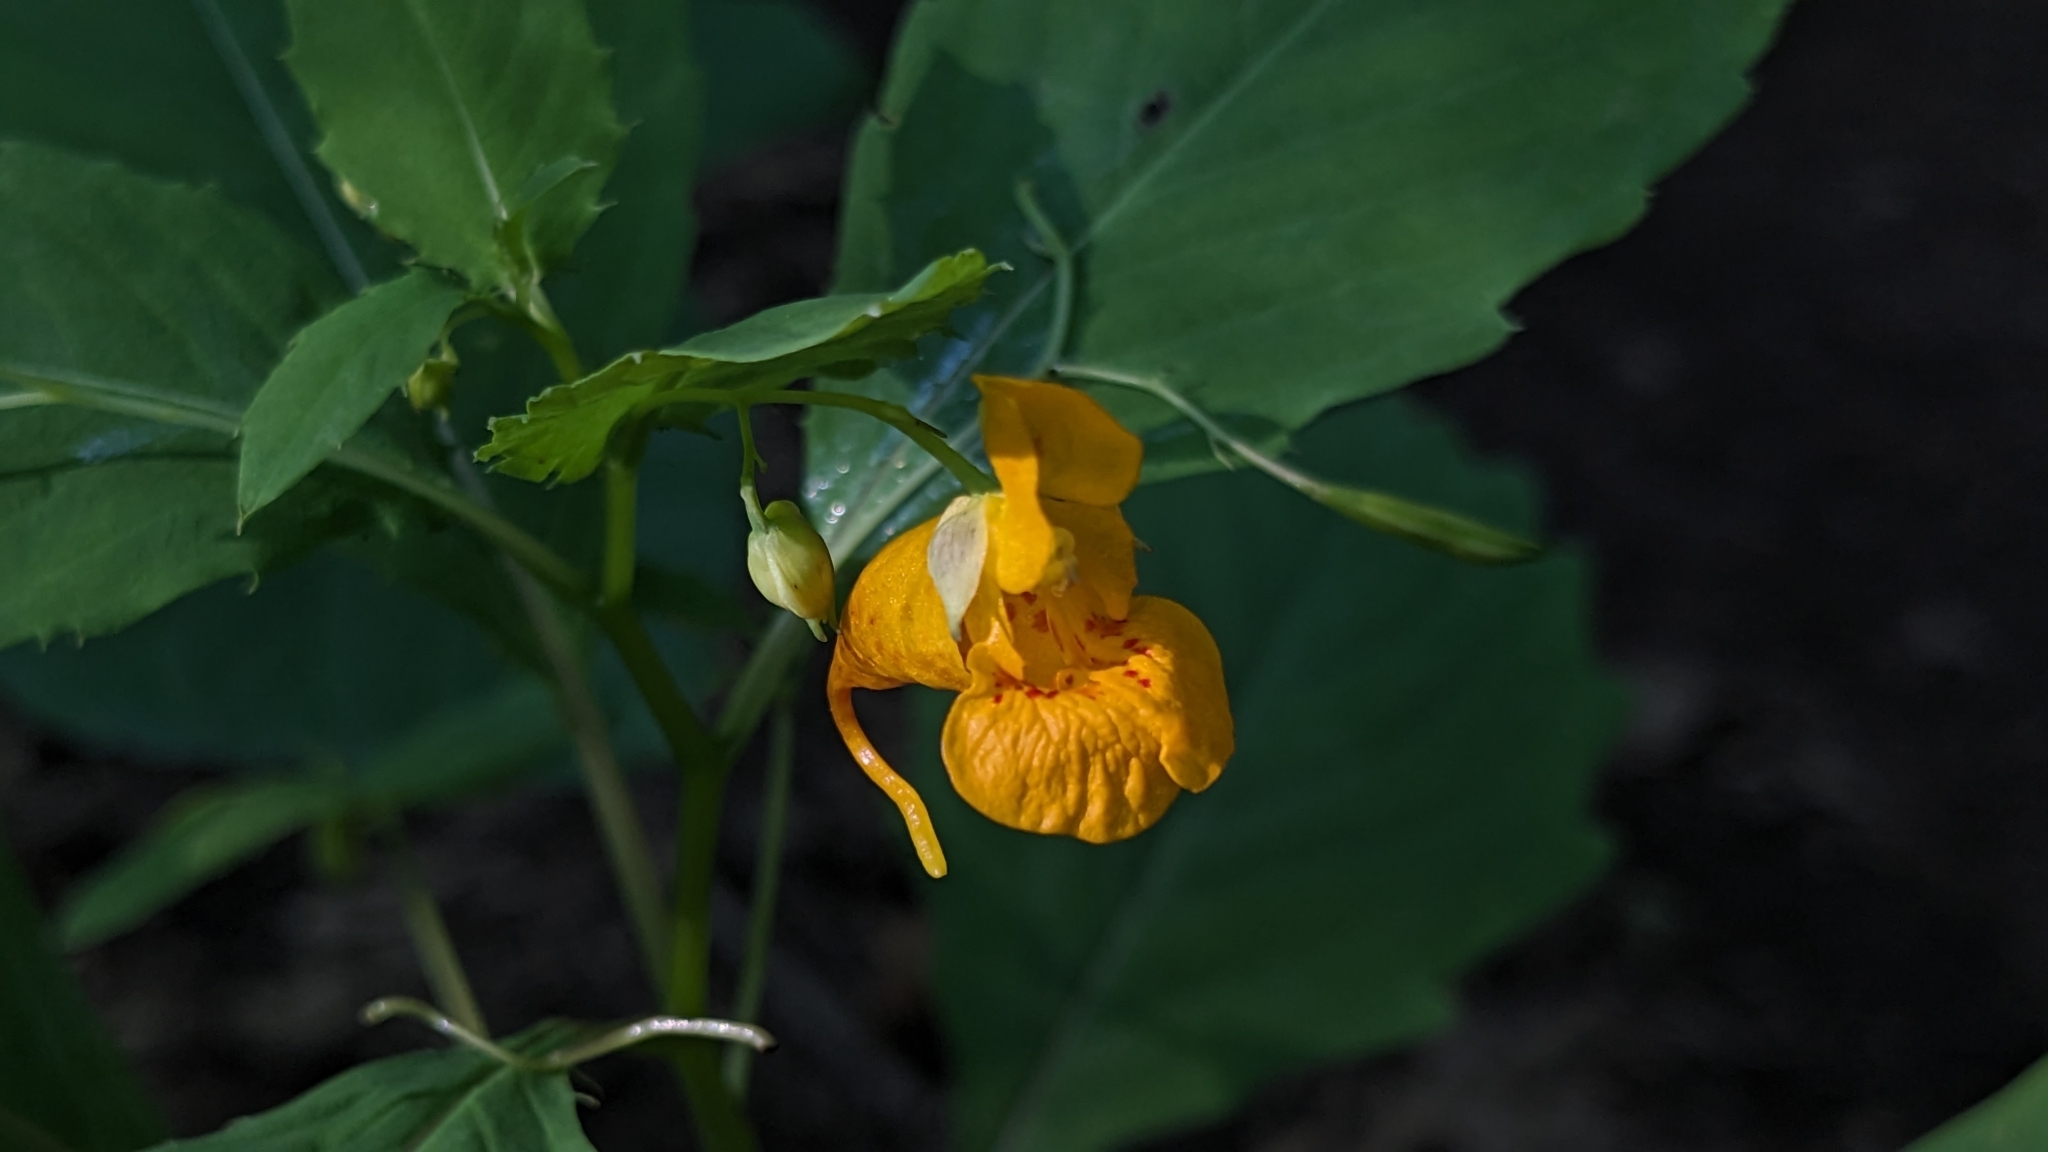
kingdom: Plantae
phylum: Tracheophyta
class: Magnoliopsida
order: Ericales
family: Balsaminaceae
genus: Impatiens
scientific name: Impatiens capensis
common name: Orange balsam
